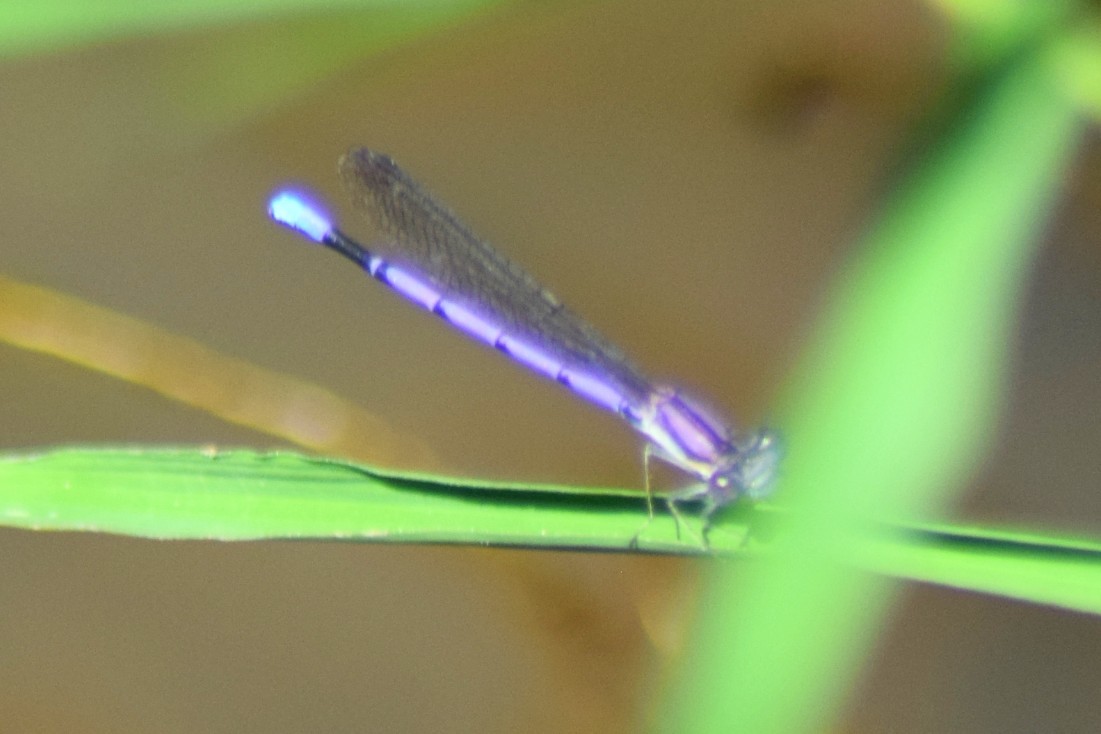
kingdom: Animalia
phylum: Arthropoda
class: Insecta
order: Odonata
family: Coenagrionidae
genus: Argia
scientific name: Argia fumipennis
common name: Variable dancer
